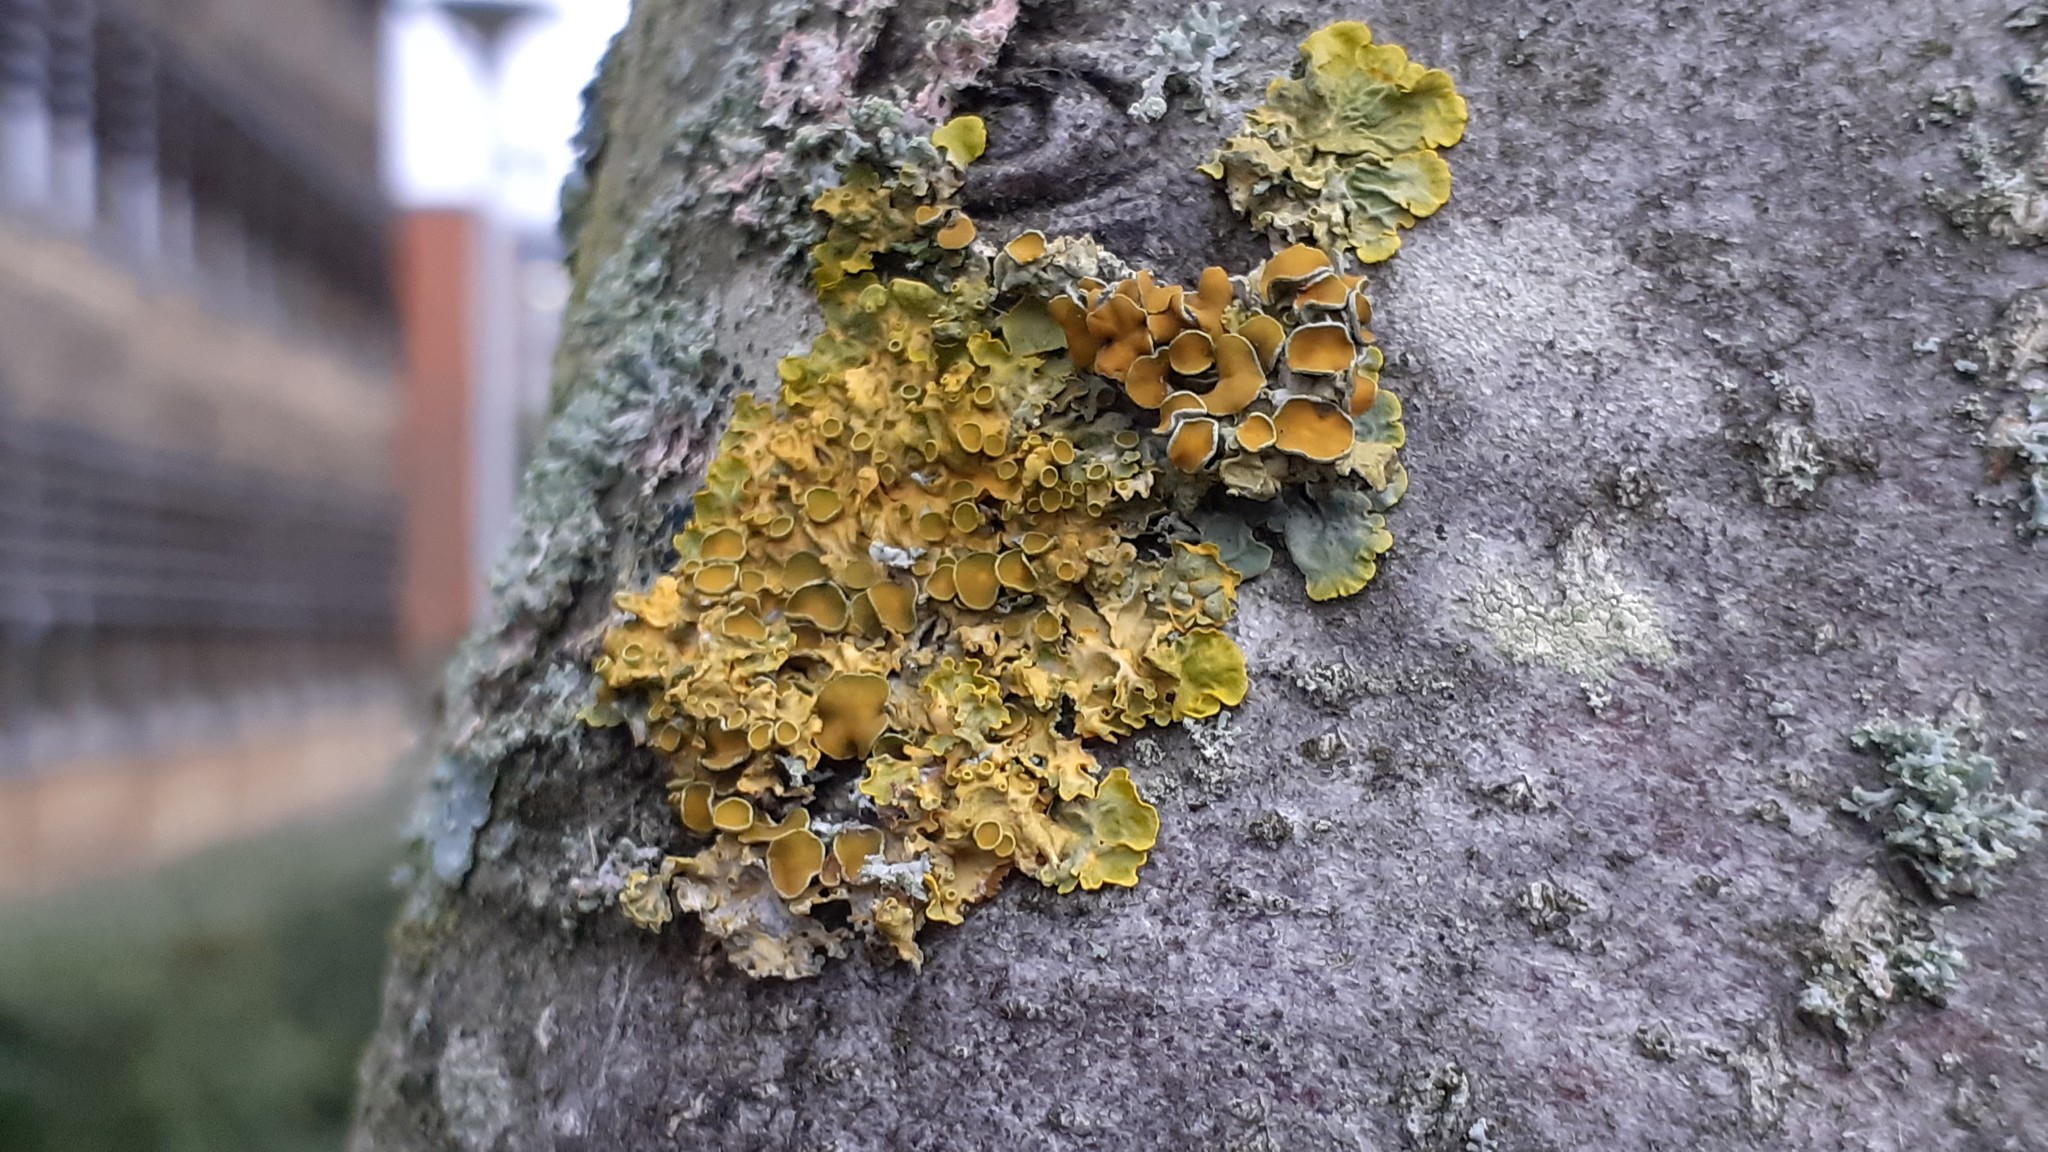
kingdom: Fungi
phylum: Ascomycota
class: Lecanoromycetes
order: Teloschistales
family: Teloschistaceae
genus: Xanthoria
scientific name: Xanthoria parietina
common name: Common orange lichen
